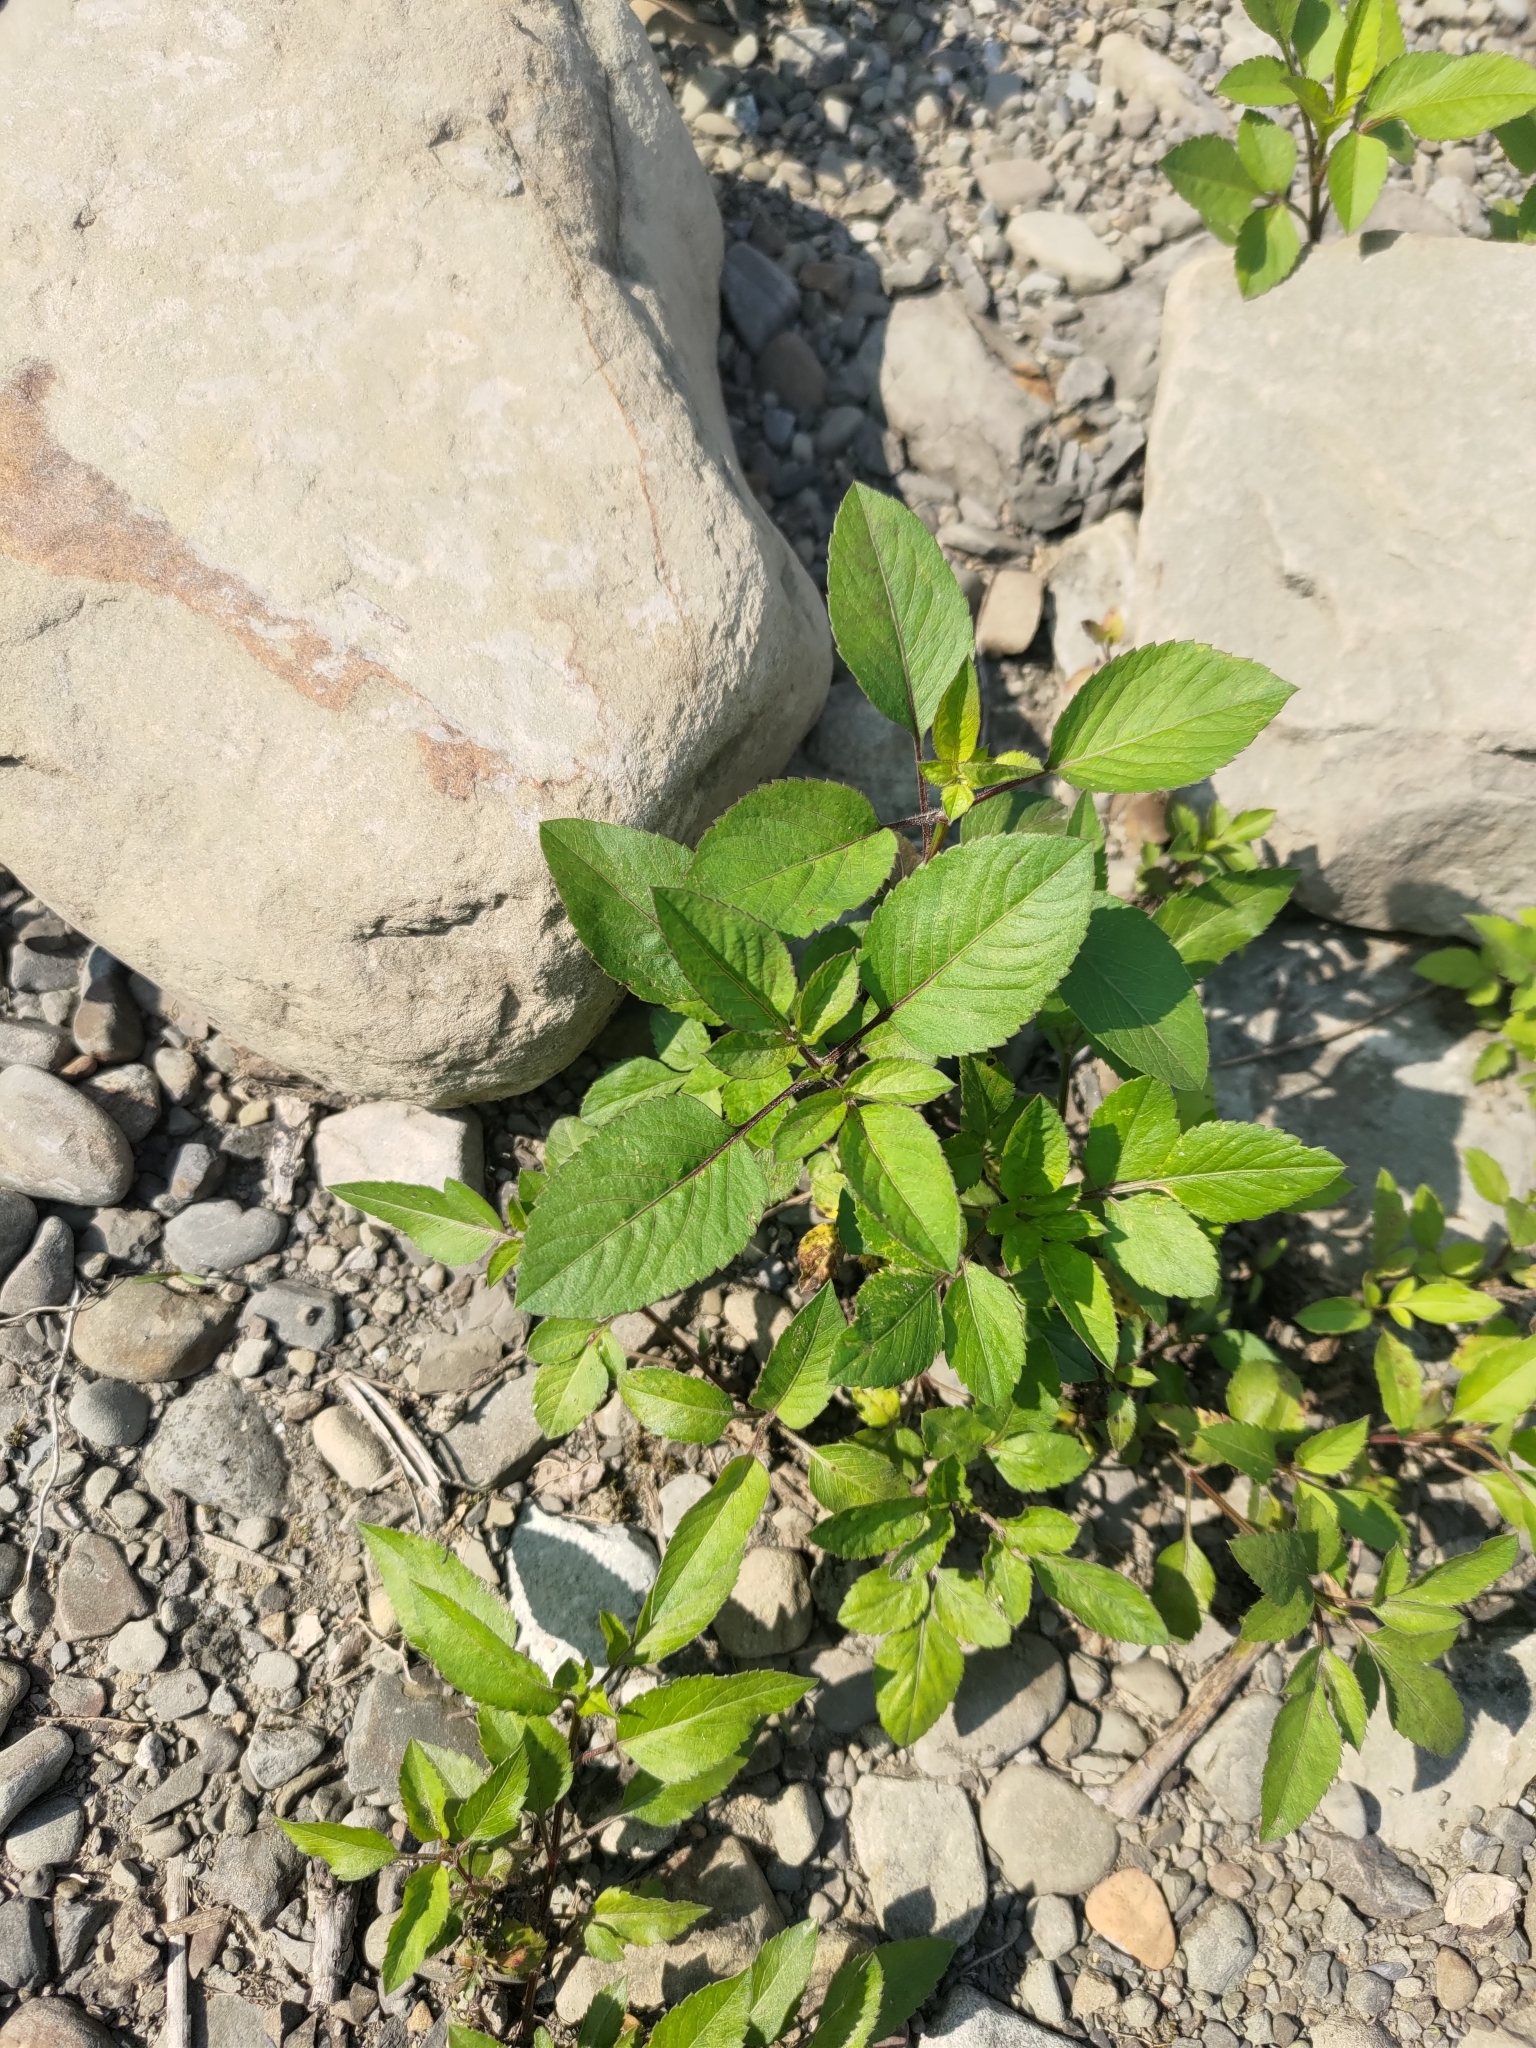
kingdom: Plantae
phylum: Tracheophyta
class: Magnoliopsida
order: Asterales
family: Asteraceae
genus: Bidens
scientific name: Bidens alba
